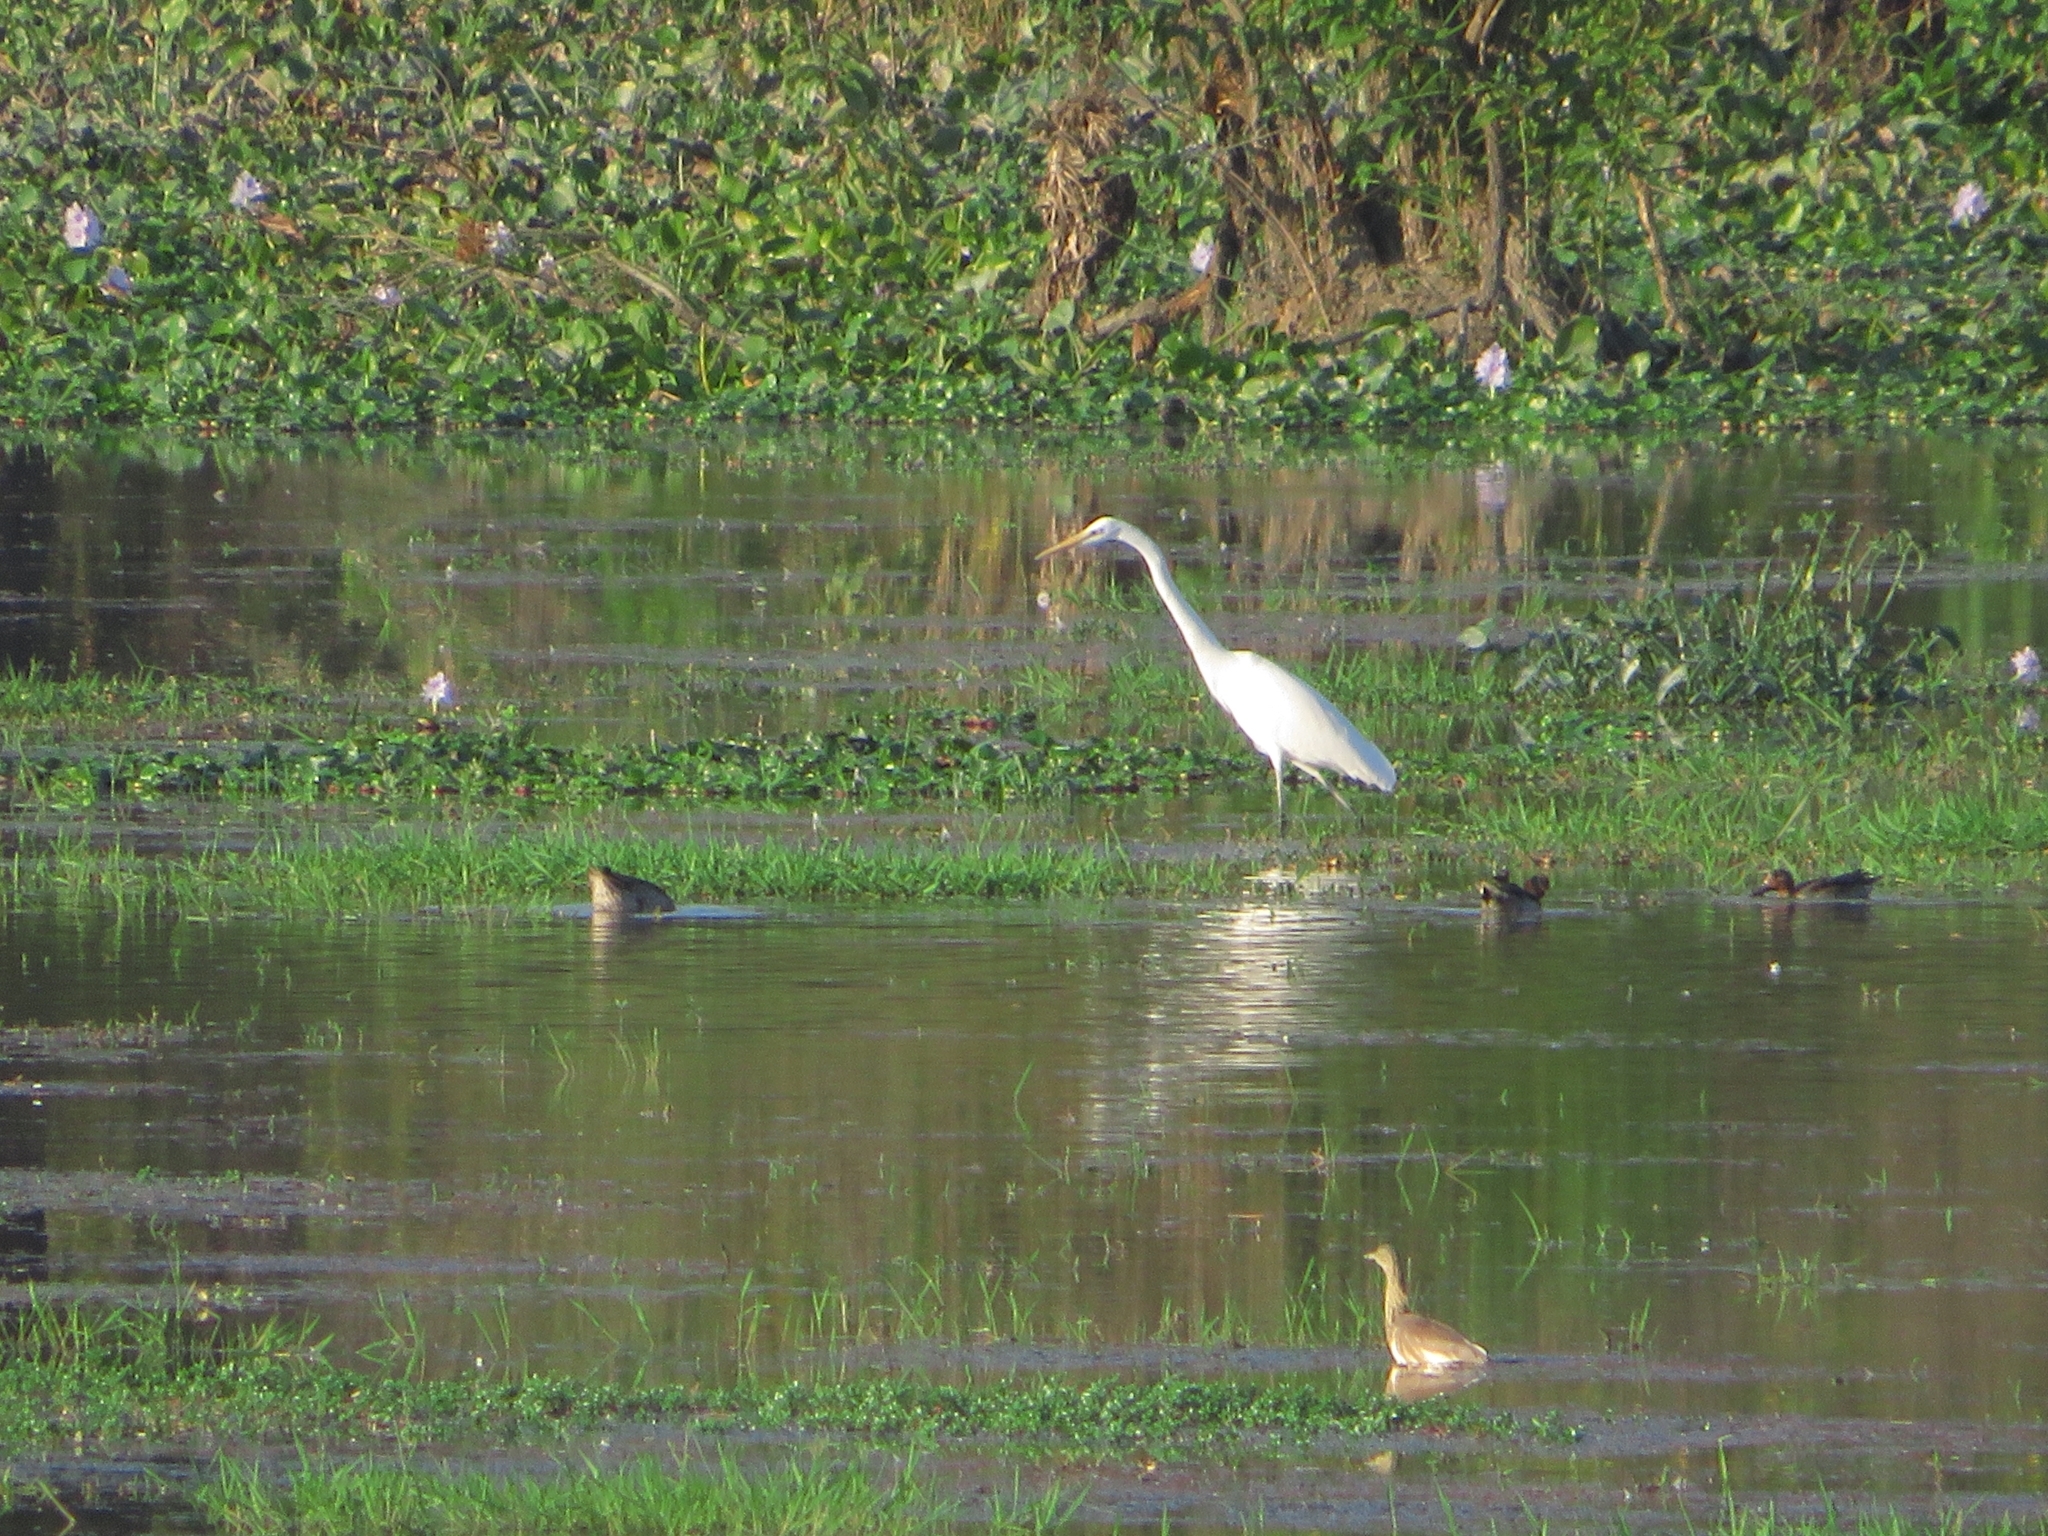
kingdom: Animalia
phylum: Chordata
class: Aves
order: Pelecaniformes
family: Ardeidae
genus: Ardea
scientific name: Ardea alba
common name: Great egret
